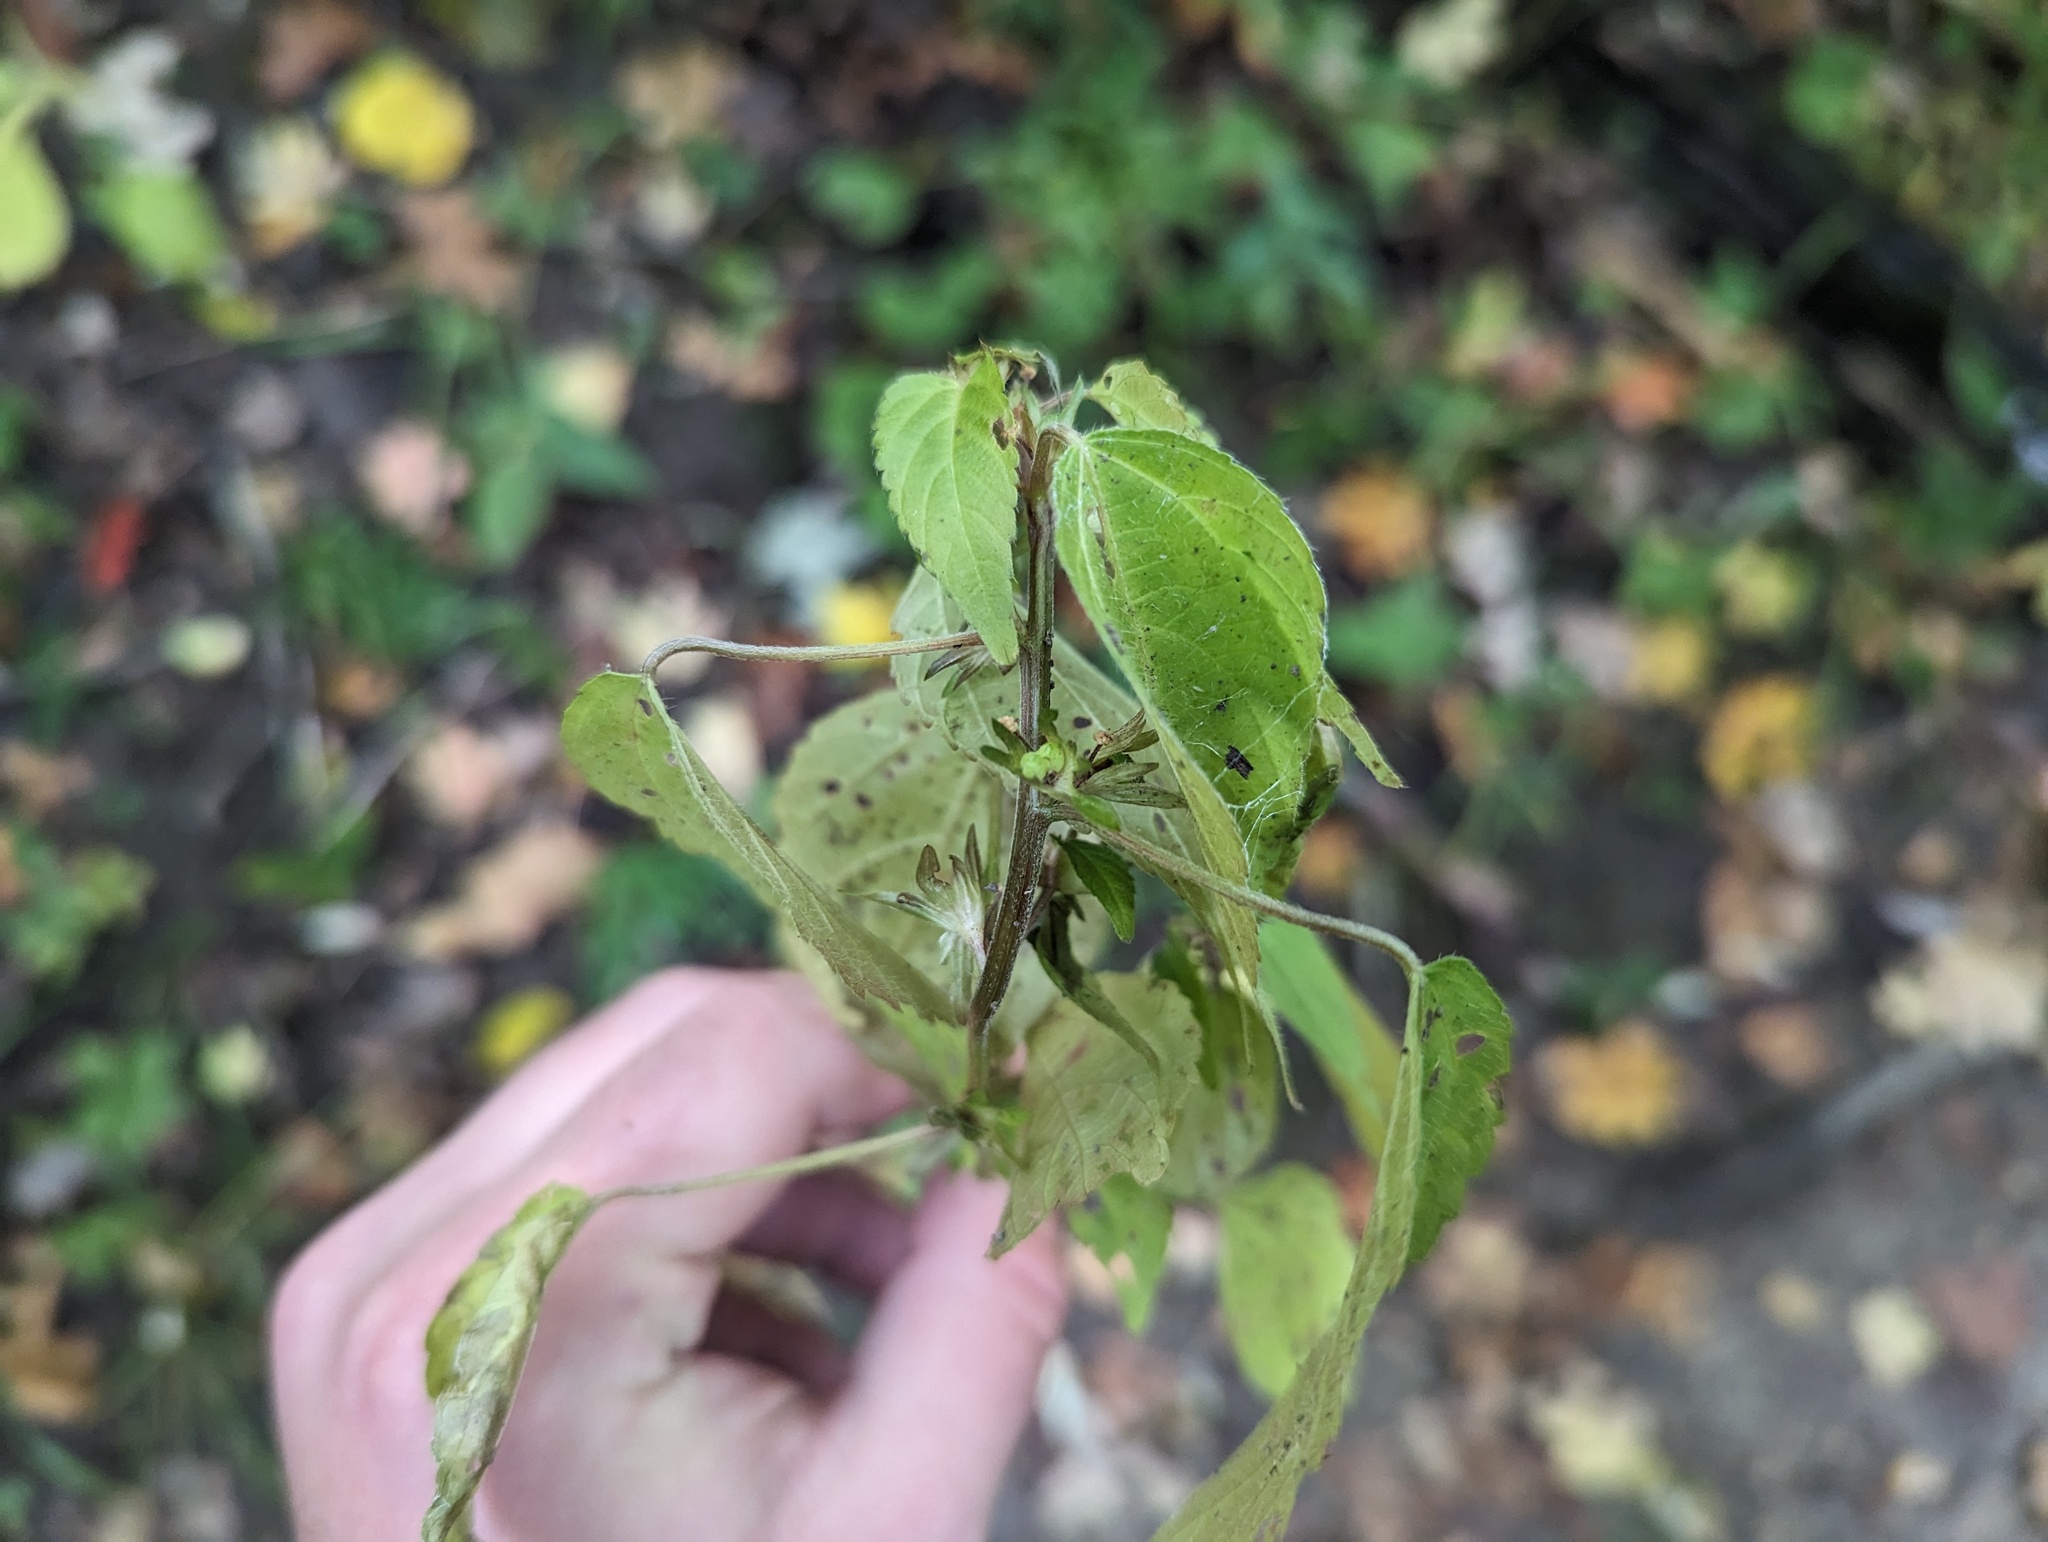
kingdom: Plantae
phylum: Tracheophyta
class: Magnoliopsida
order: Malpighiales
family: Euphorbiaceae
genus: Acalypha
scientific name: Acalypha deamii
